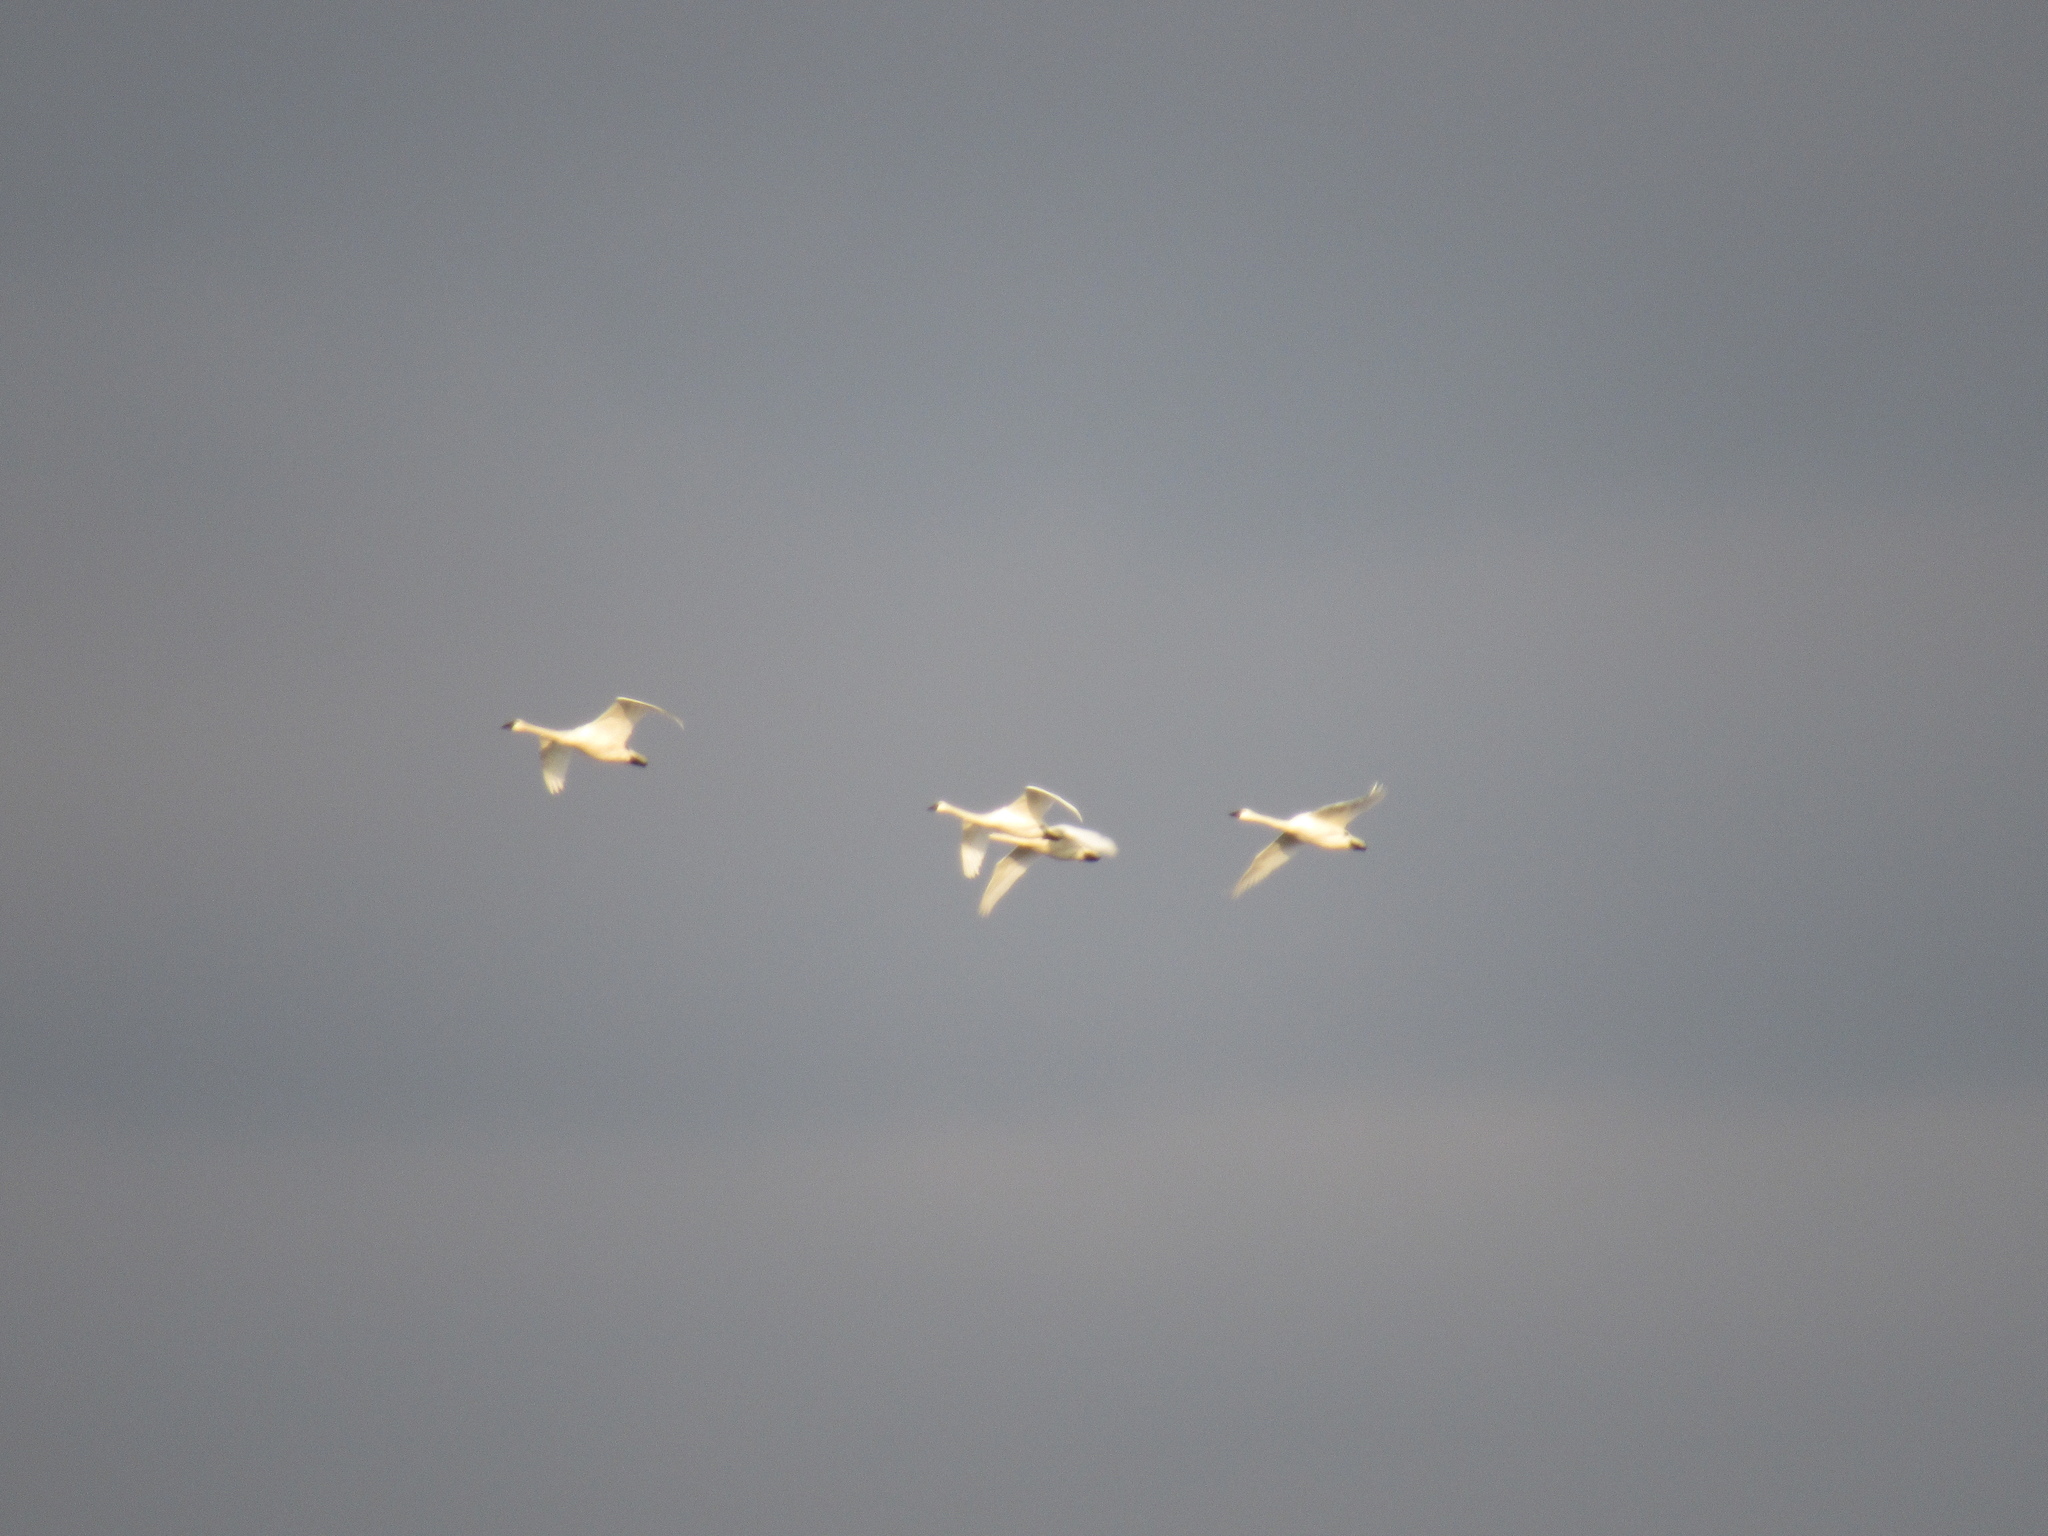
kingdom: Animalia
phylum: Chordata
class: Aves
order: Anseriformes
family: Anatidae
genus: Cygnus
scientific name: Cygnus columbianus
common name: Tundra swan
